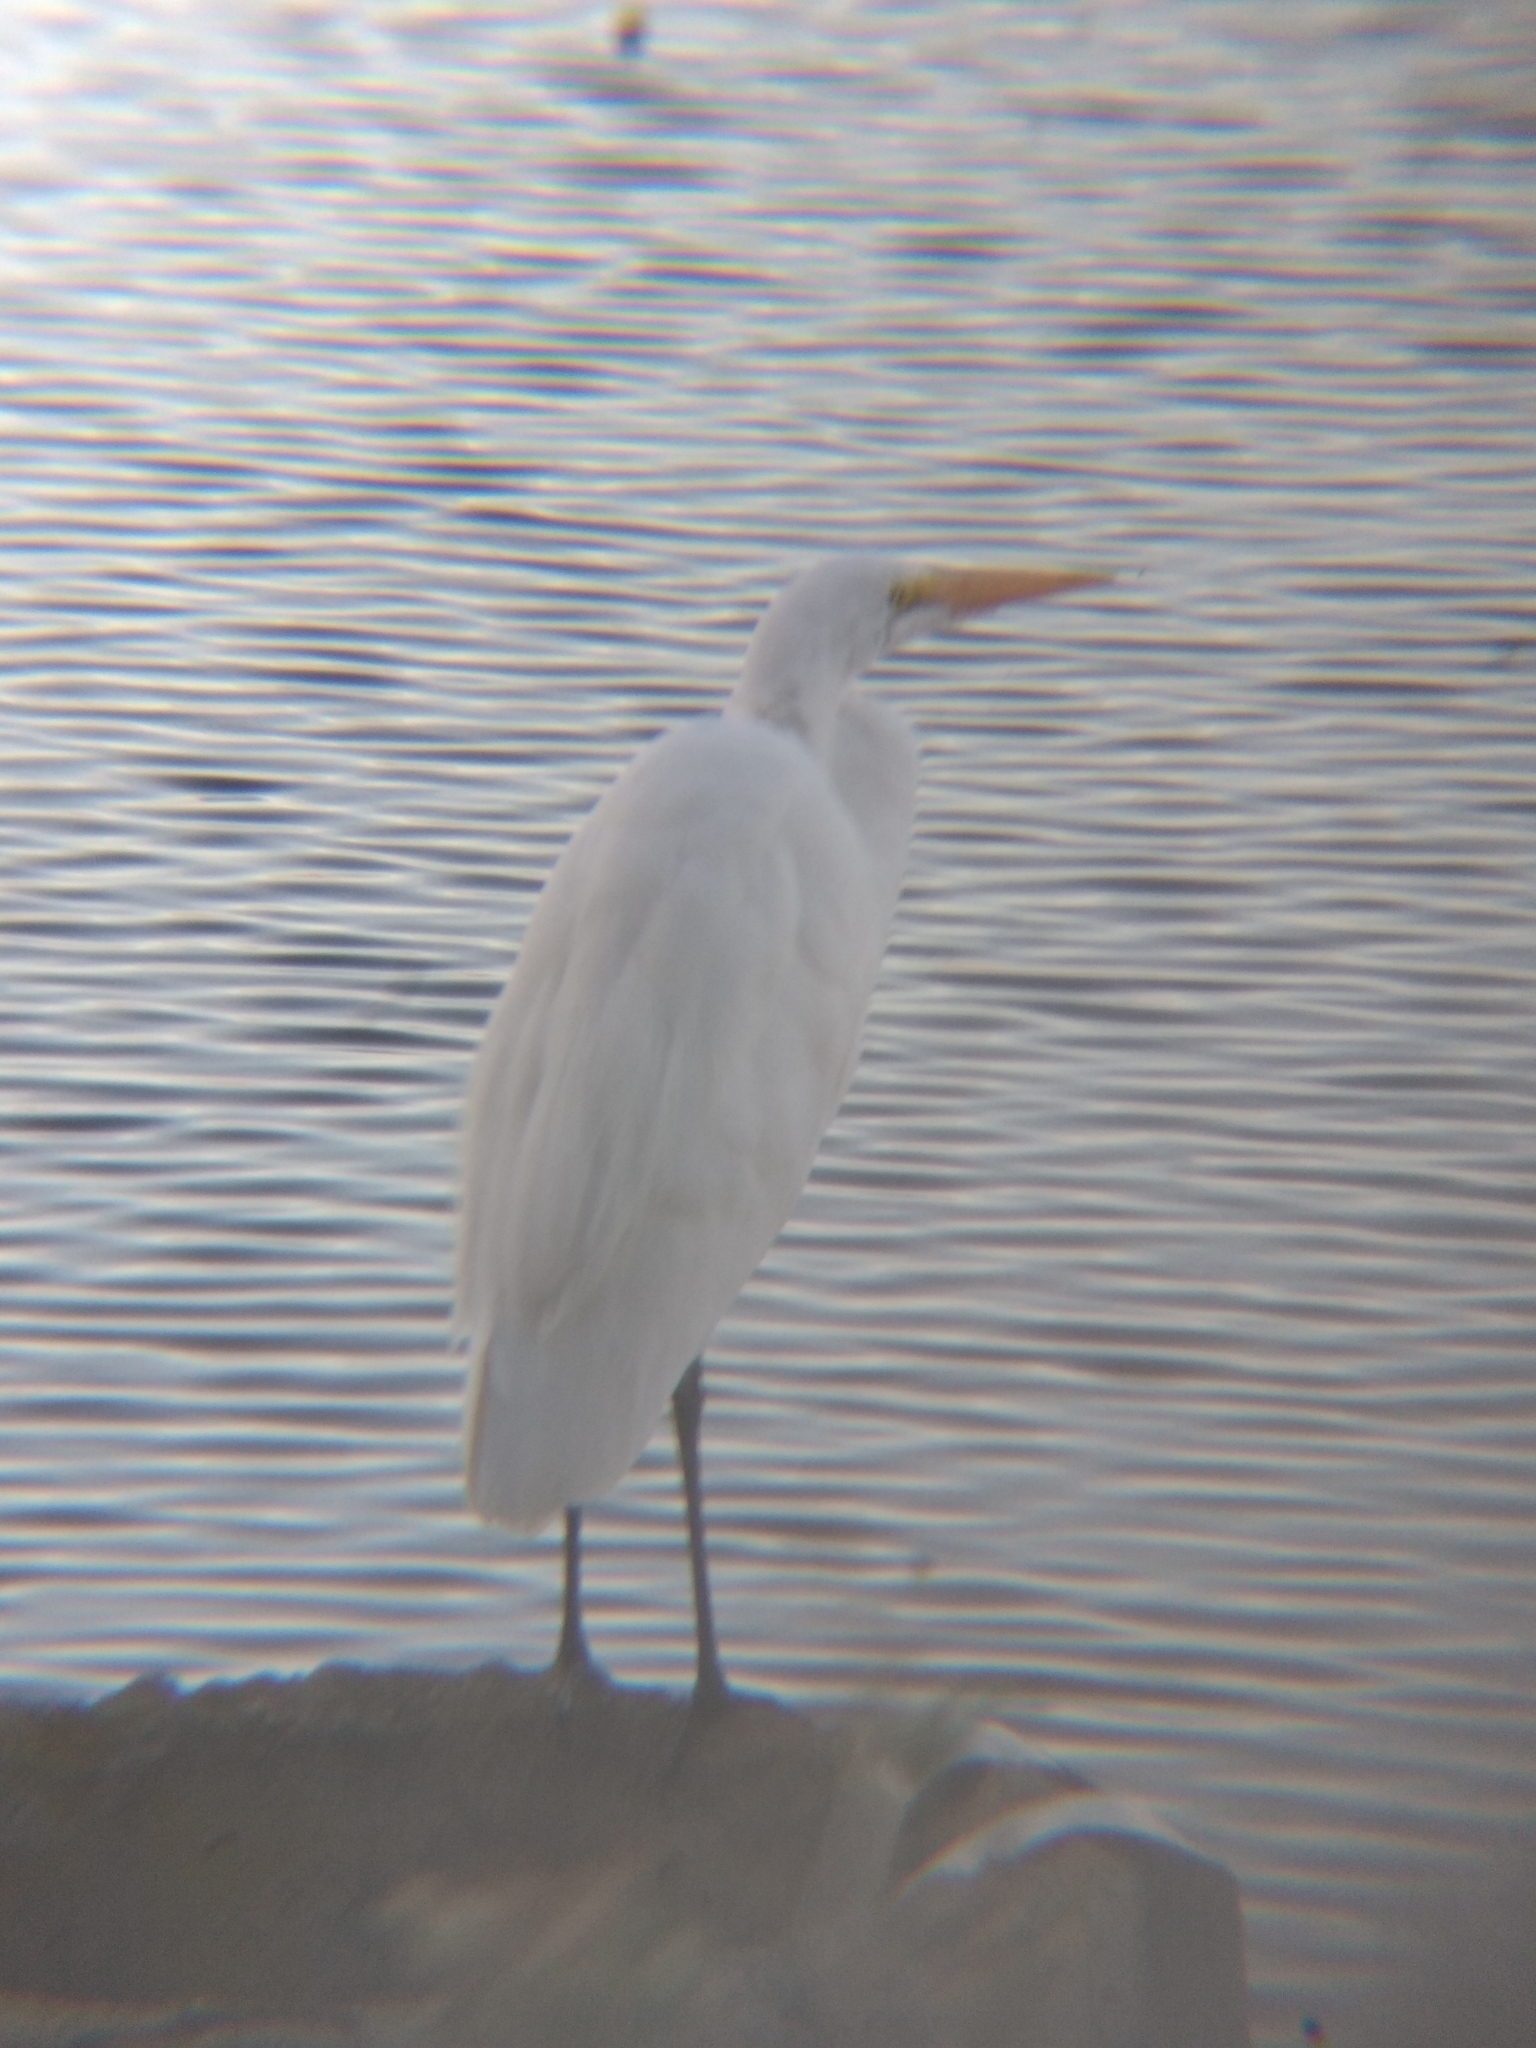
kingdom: Animalia
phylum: Chordata
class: Aves
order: Pelecaniformes
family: Ardeidae
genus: Ardea
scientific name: Ardea alba
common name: Great egret
